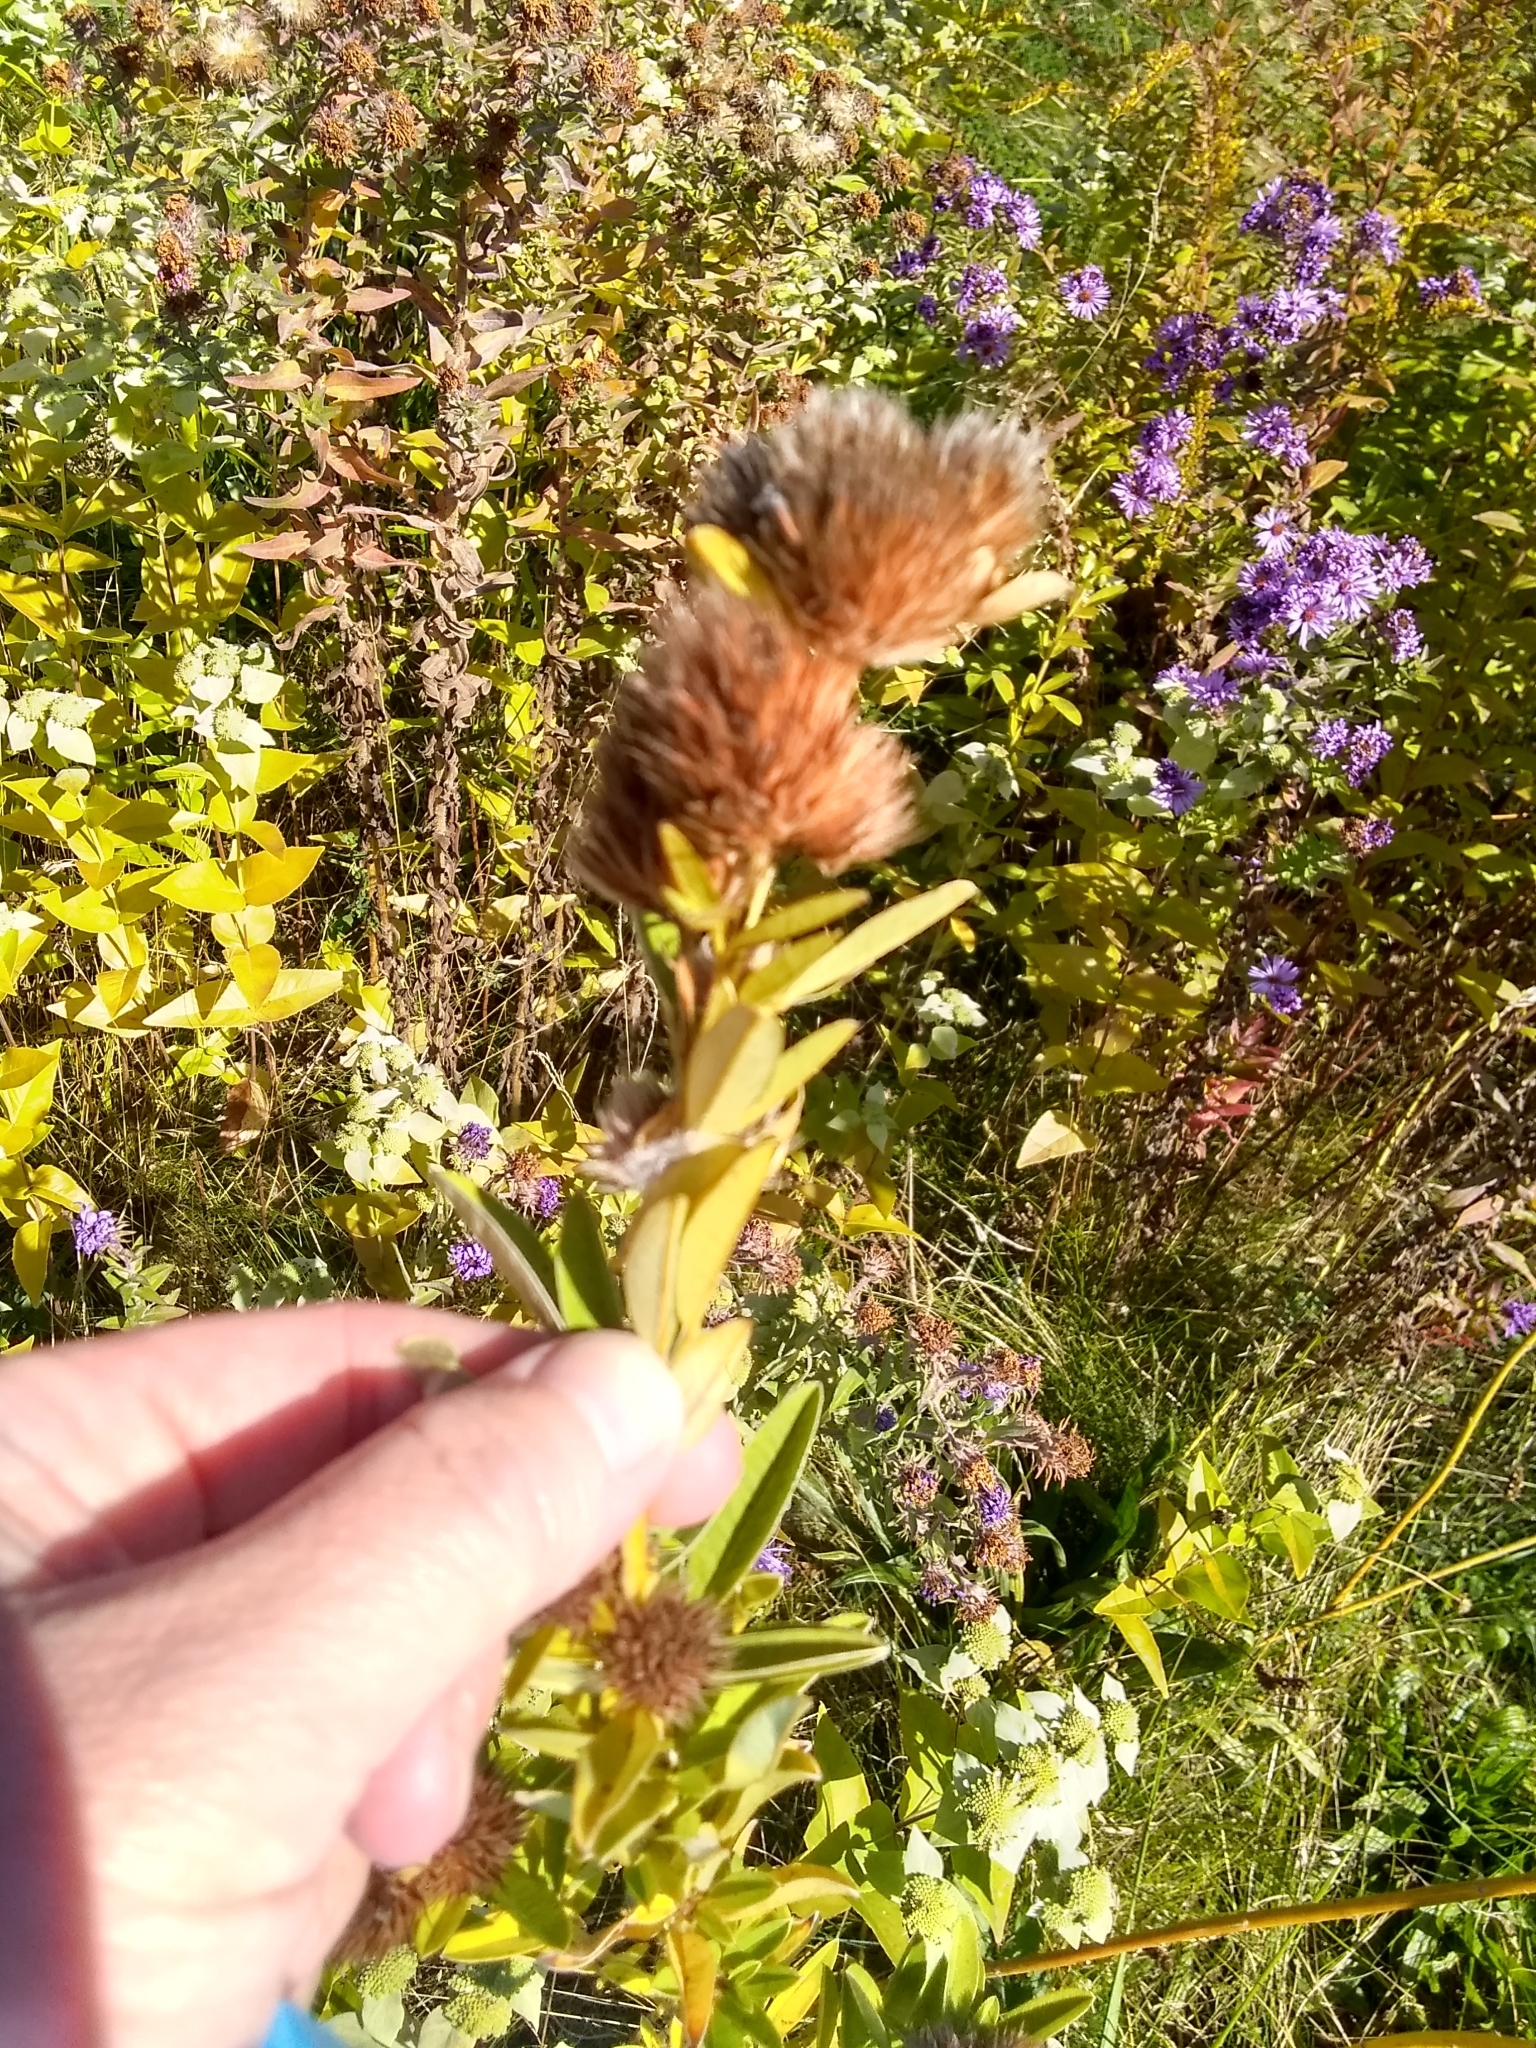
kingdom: Plantae
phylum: Tracheophyta
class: Magnoliopsida
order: Fabales
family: Fabaceae
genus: Lespedeza
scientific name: Lespedeza capitata
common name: Dusty clover
